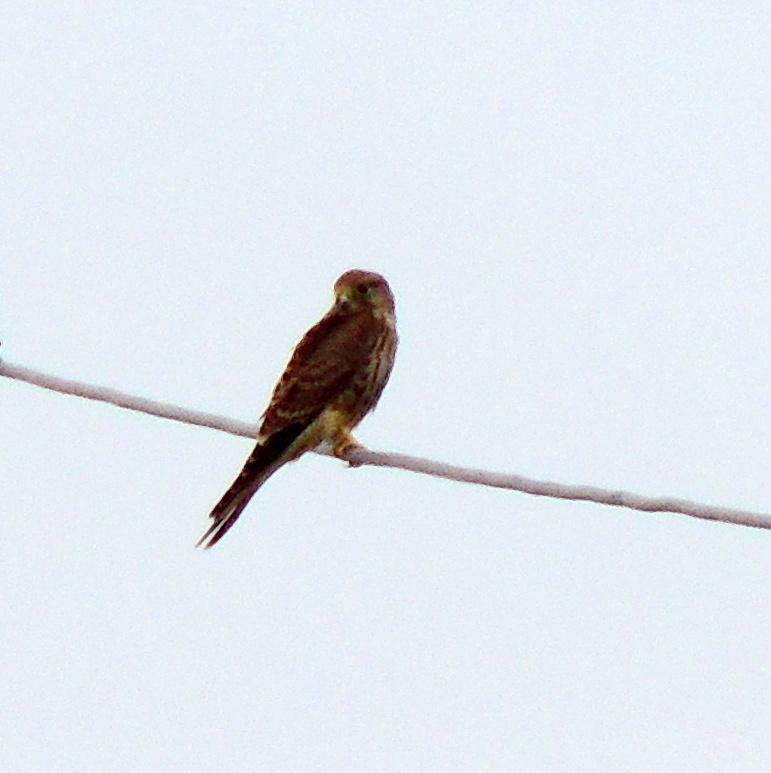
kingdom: Animalia
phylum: Chordata
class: Aves
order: Falconiformes
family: Falconidae
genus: Falco
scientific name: Falco tinnunculus
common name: Common kestrel
